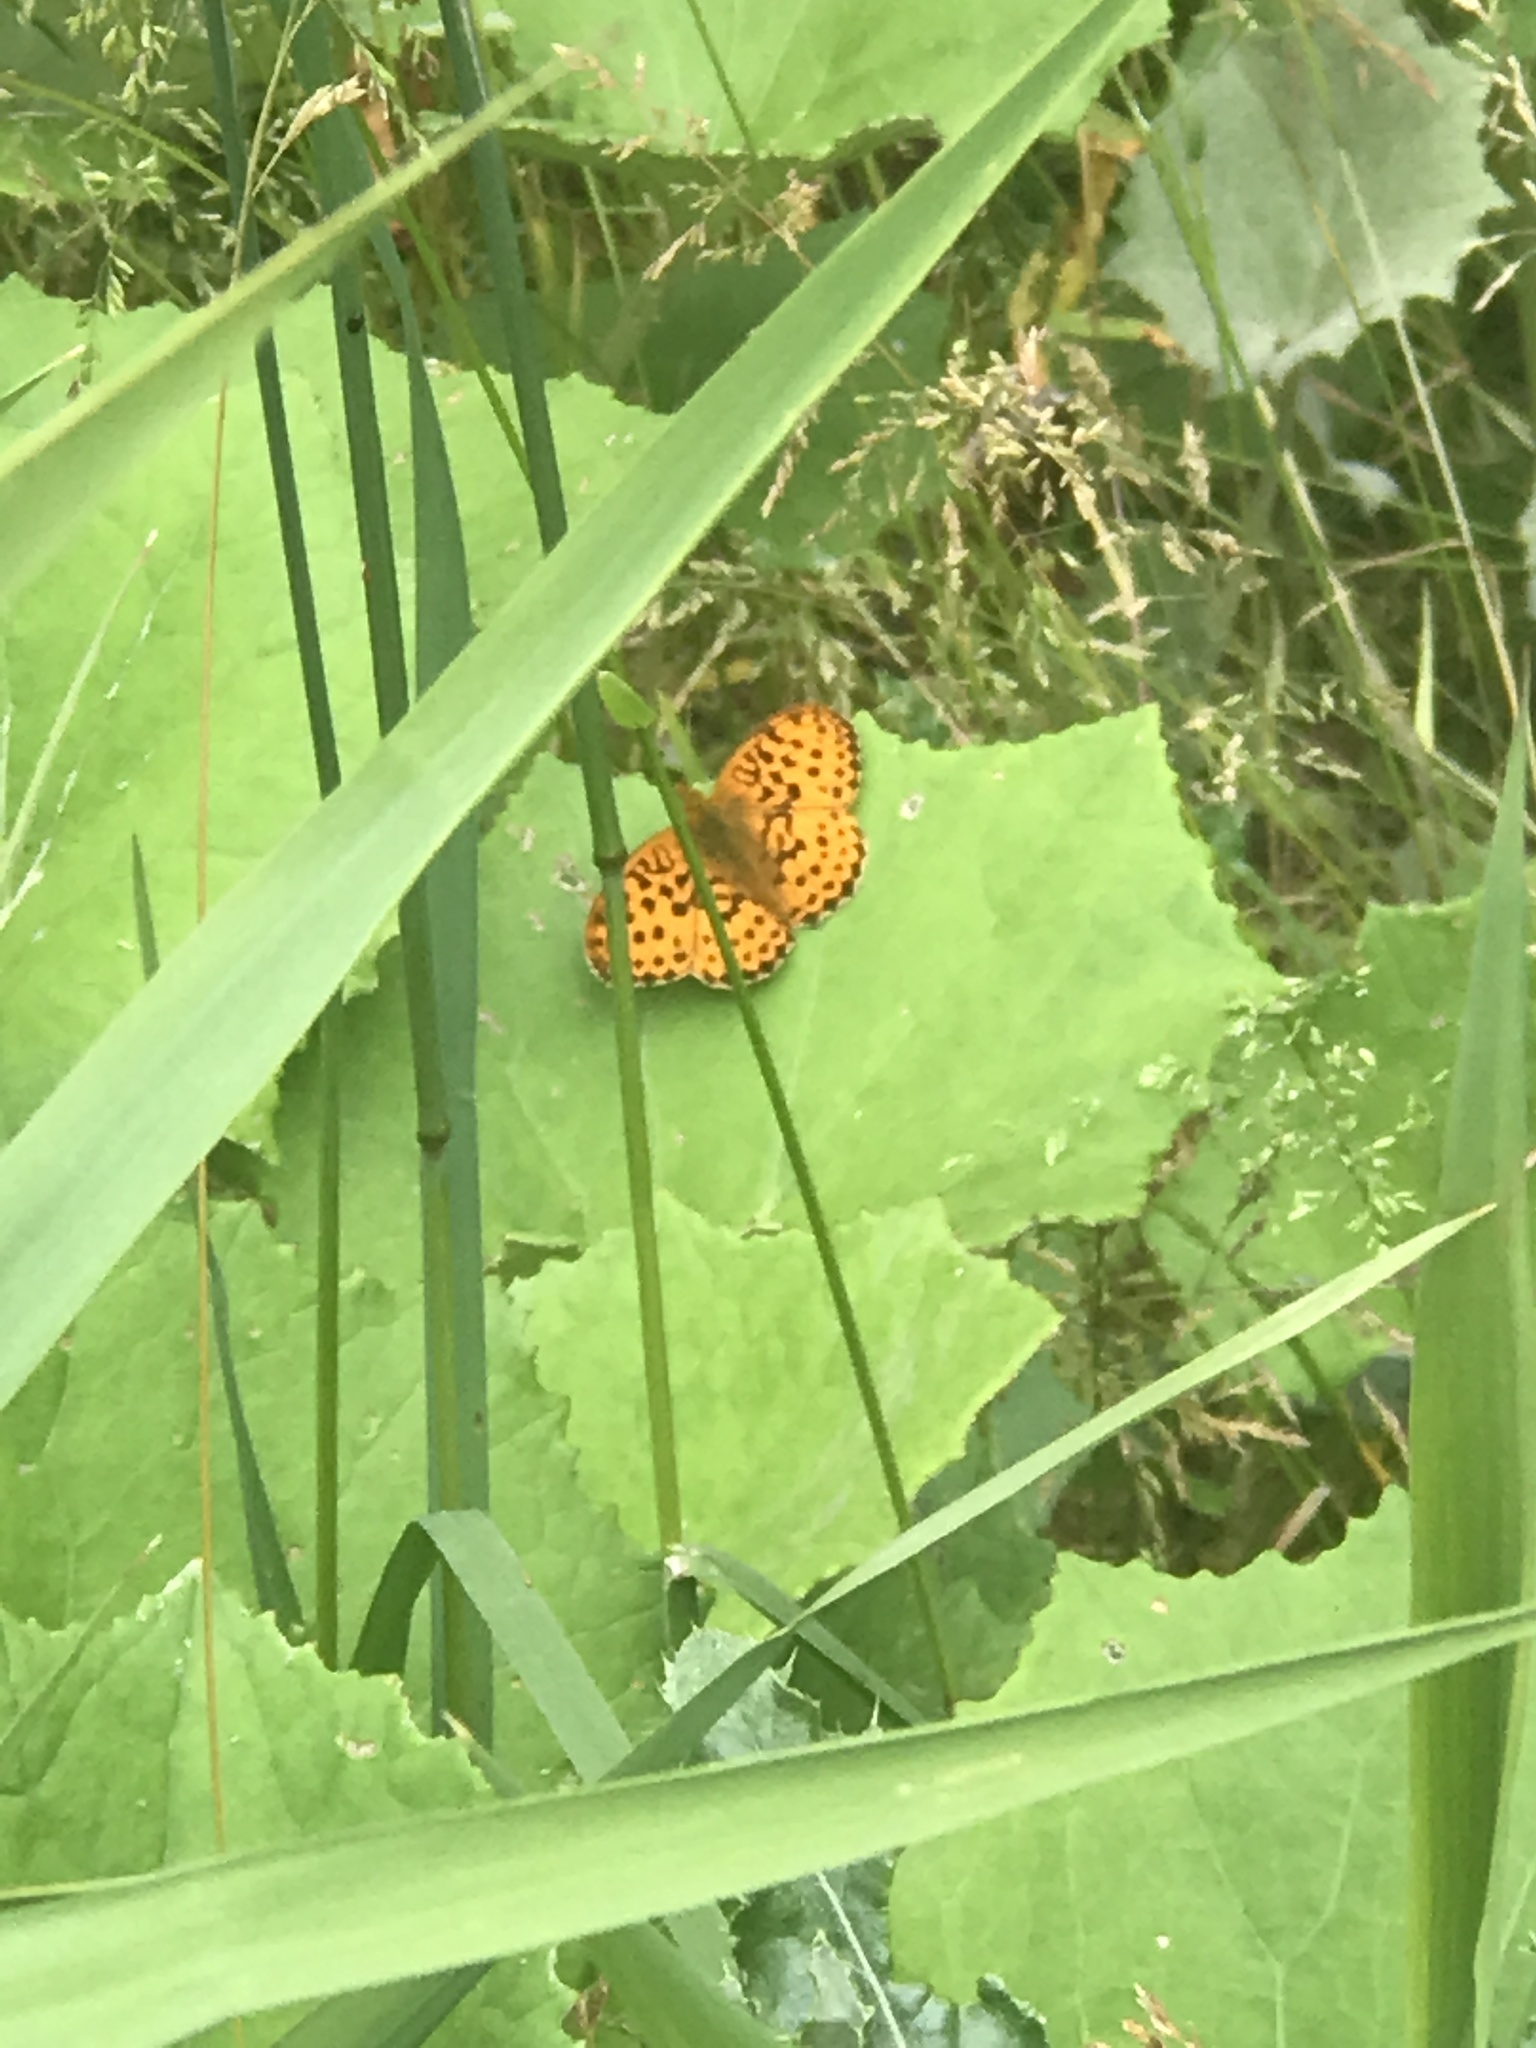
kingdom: Animalia
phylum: Arthropoda
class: Insecta
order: Lepidoptera
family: Nymphalidae
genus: Brenthis
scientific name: Brenthis daphne
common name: Marbled fritillary
